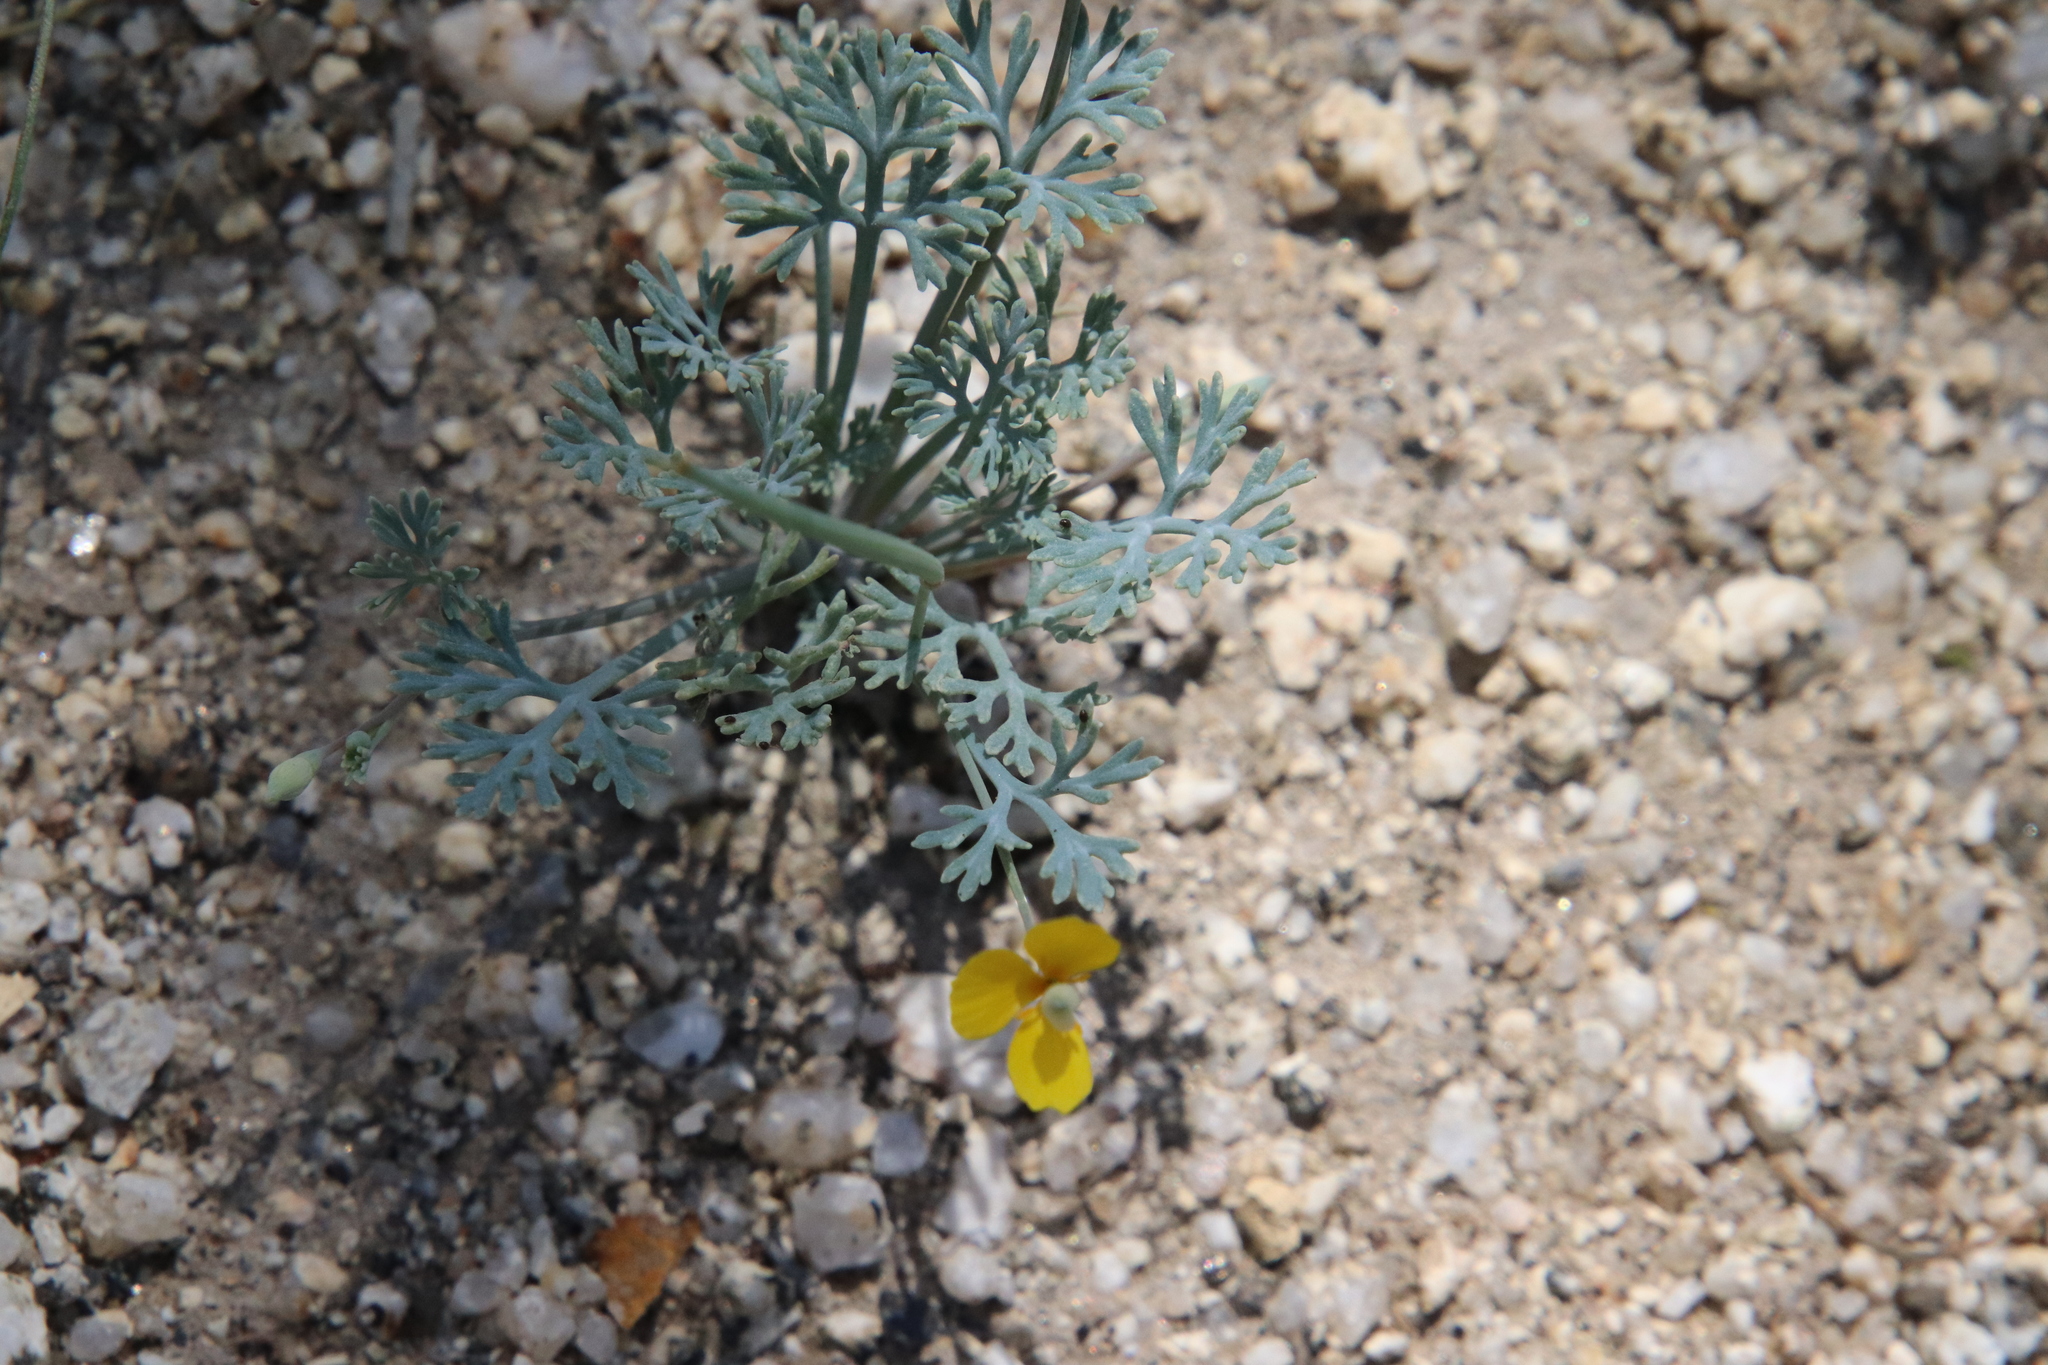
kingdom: Plantae
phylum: Tracheophyta
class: Magnoliopsida
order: Ranunculales
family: Papaveraceae
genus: Eschscholzia
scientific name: Eschscholzia minutiflora
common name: Small-flower california-poppy
